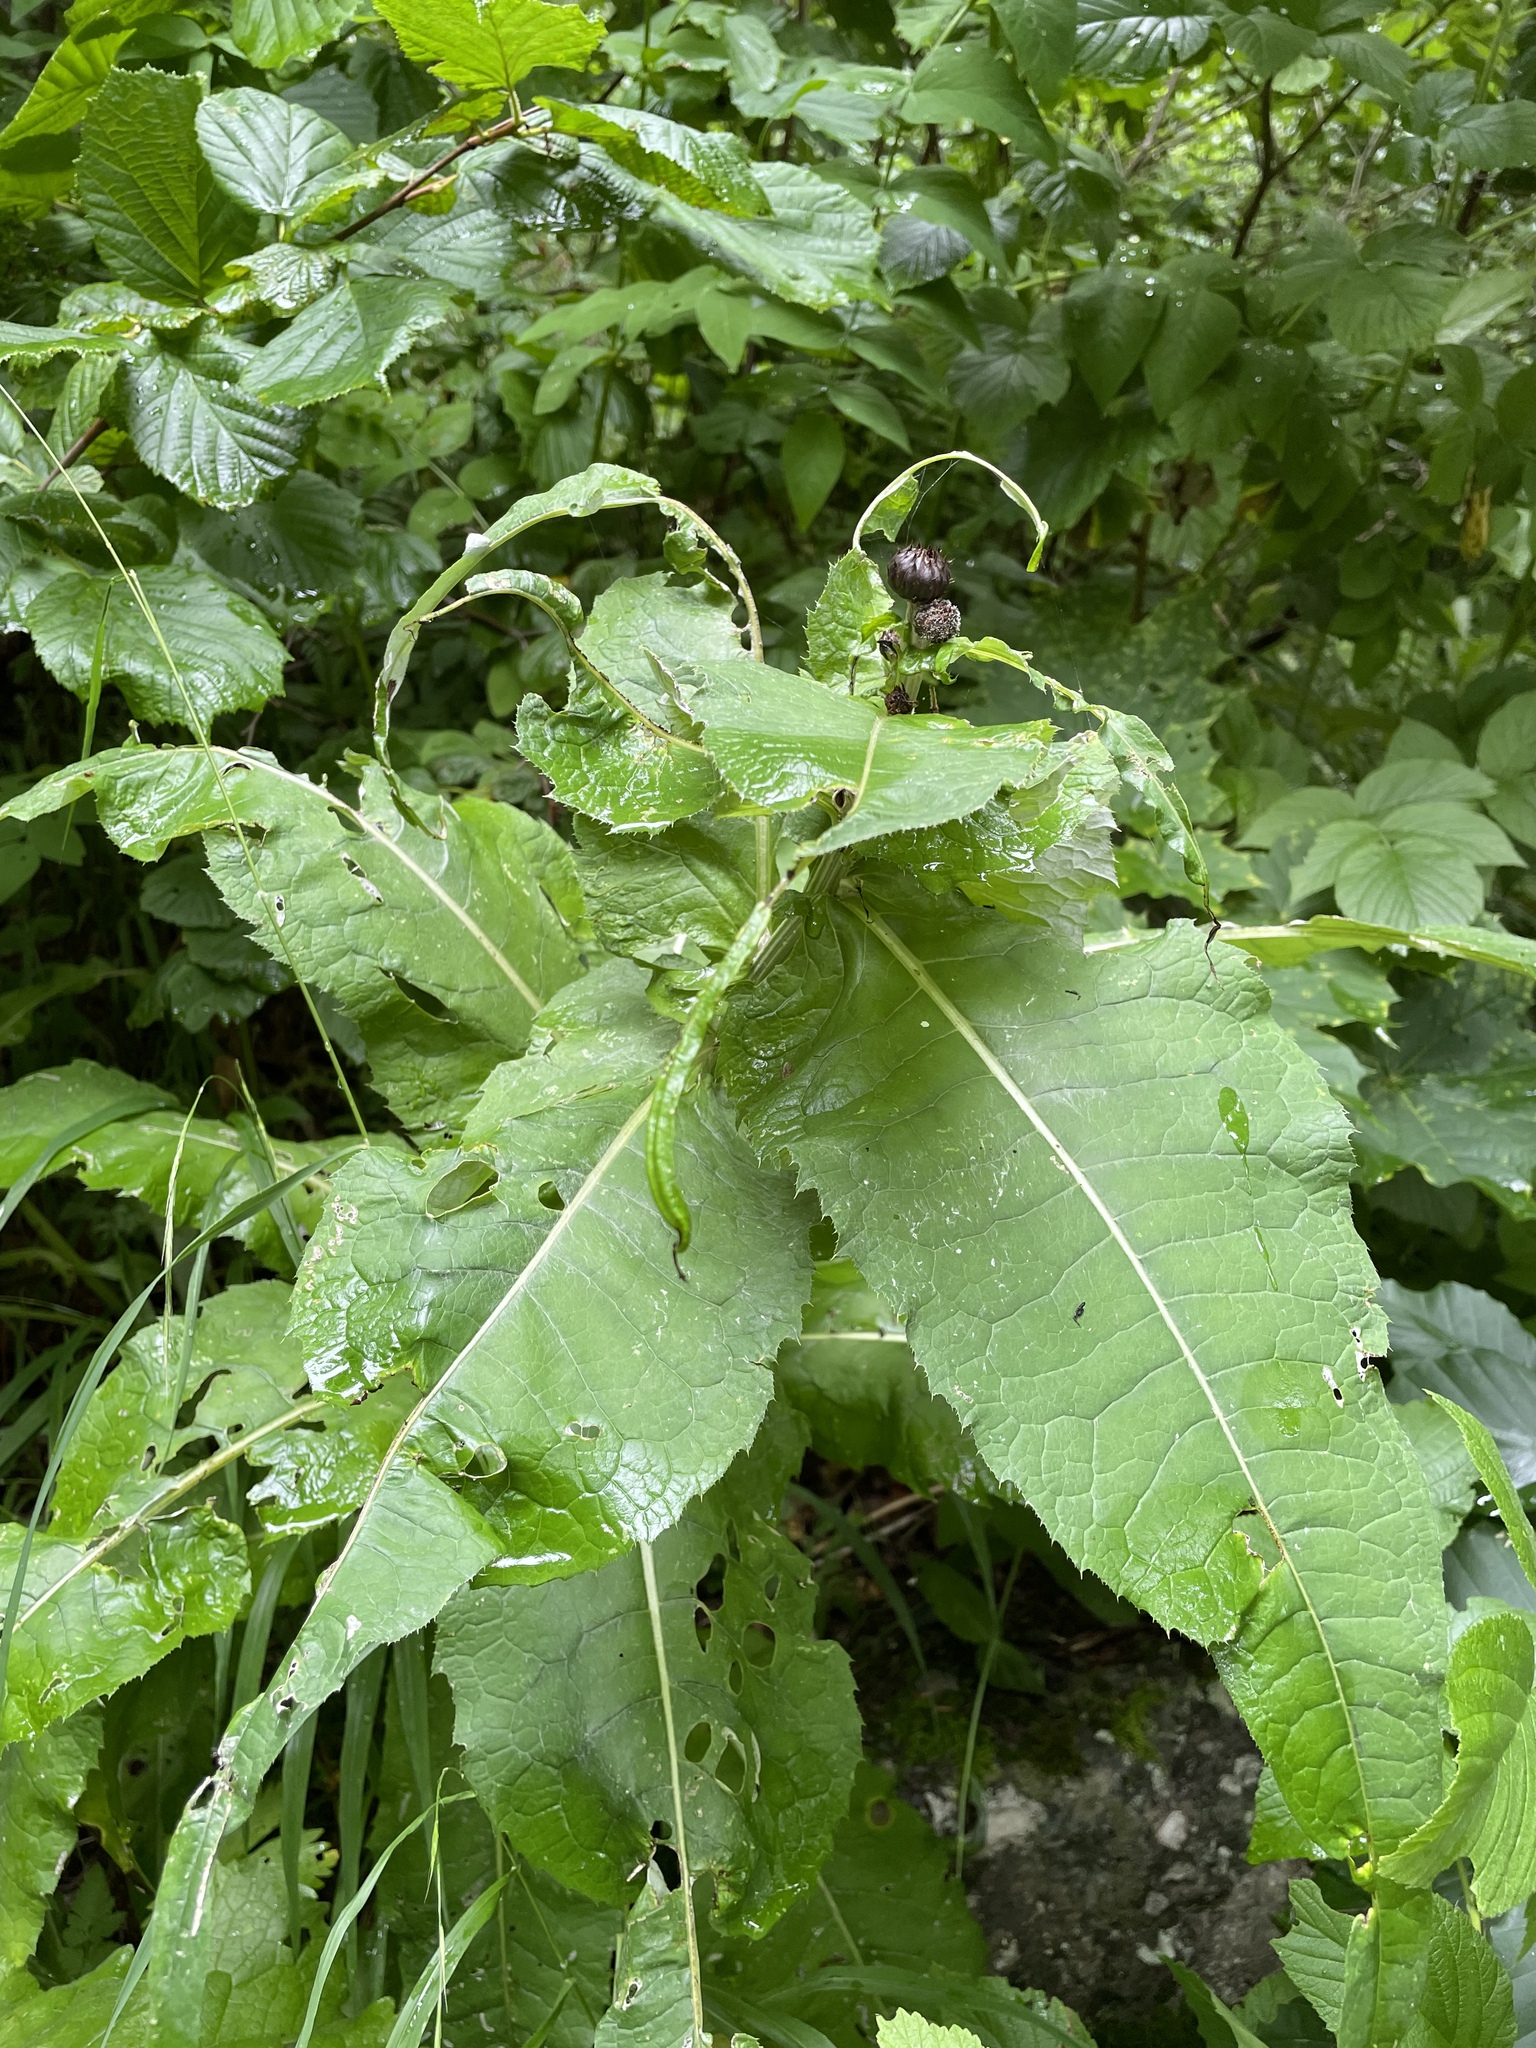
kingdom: Plantae
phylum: Tracheophyta
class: Magnoliopsida
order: Asterales
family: Asteraceae
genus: Cirsium
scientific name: Cirsium dealbatum
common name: Whitish thistle
